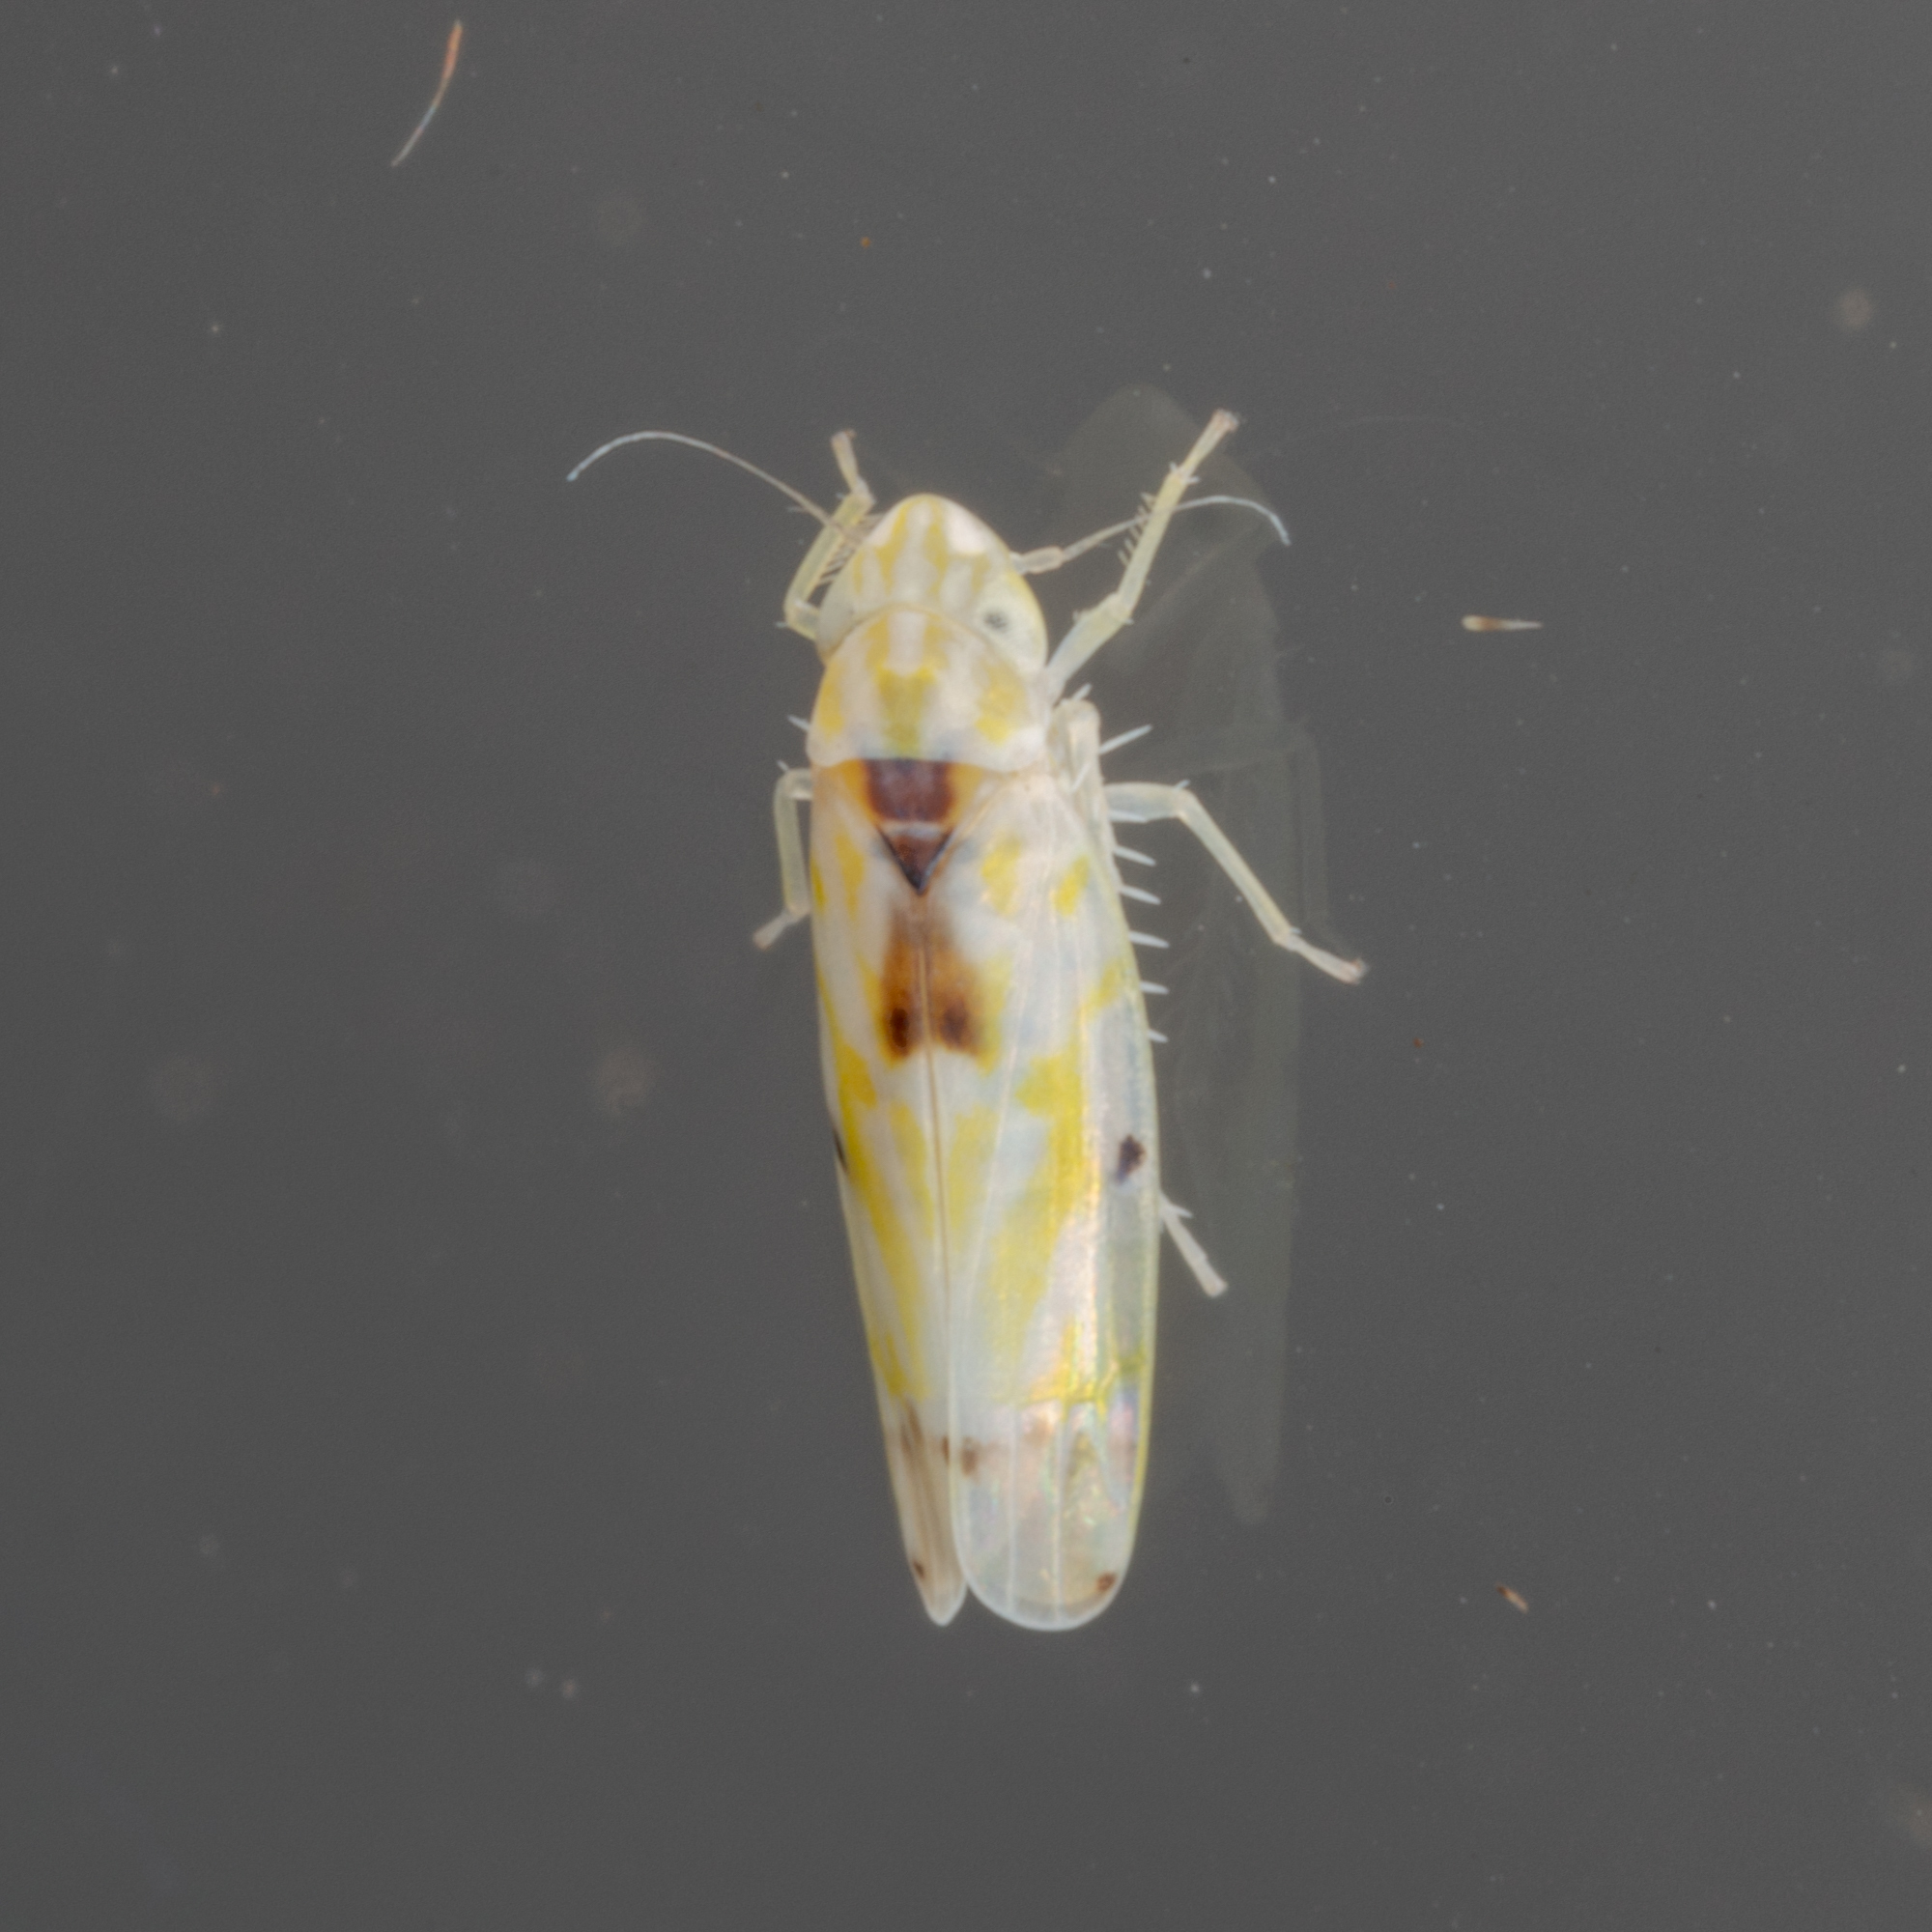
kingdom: Animalia
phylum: Arthropoda
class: Insecta
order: Hemiptera
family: Cicadellidae
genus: Erythroneura
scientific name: Erythroneura octonotata
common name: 8-spotted leafhopper
